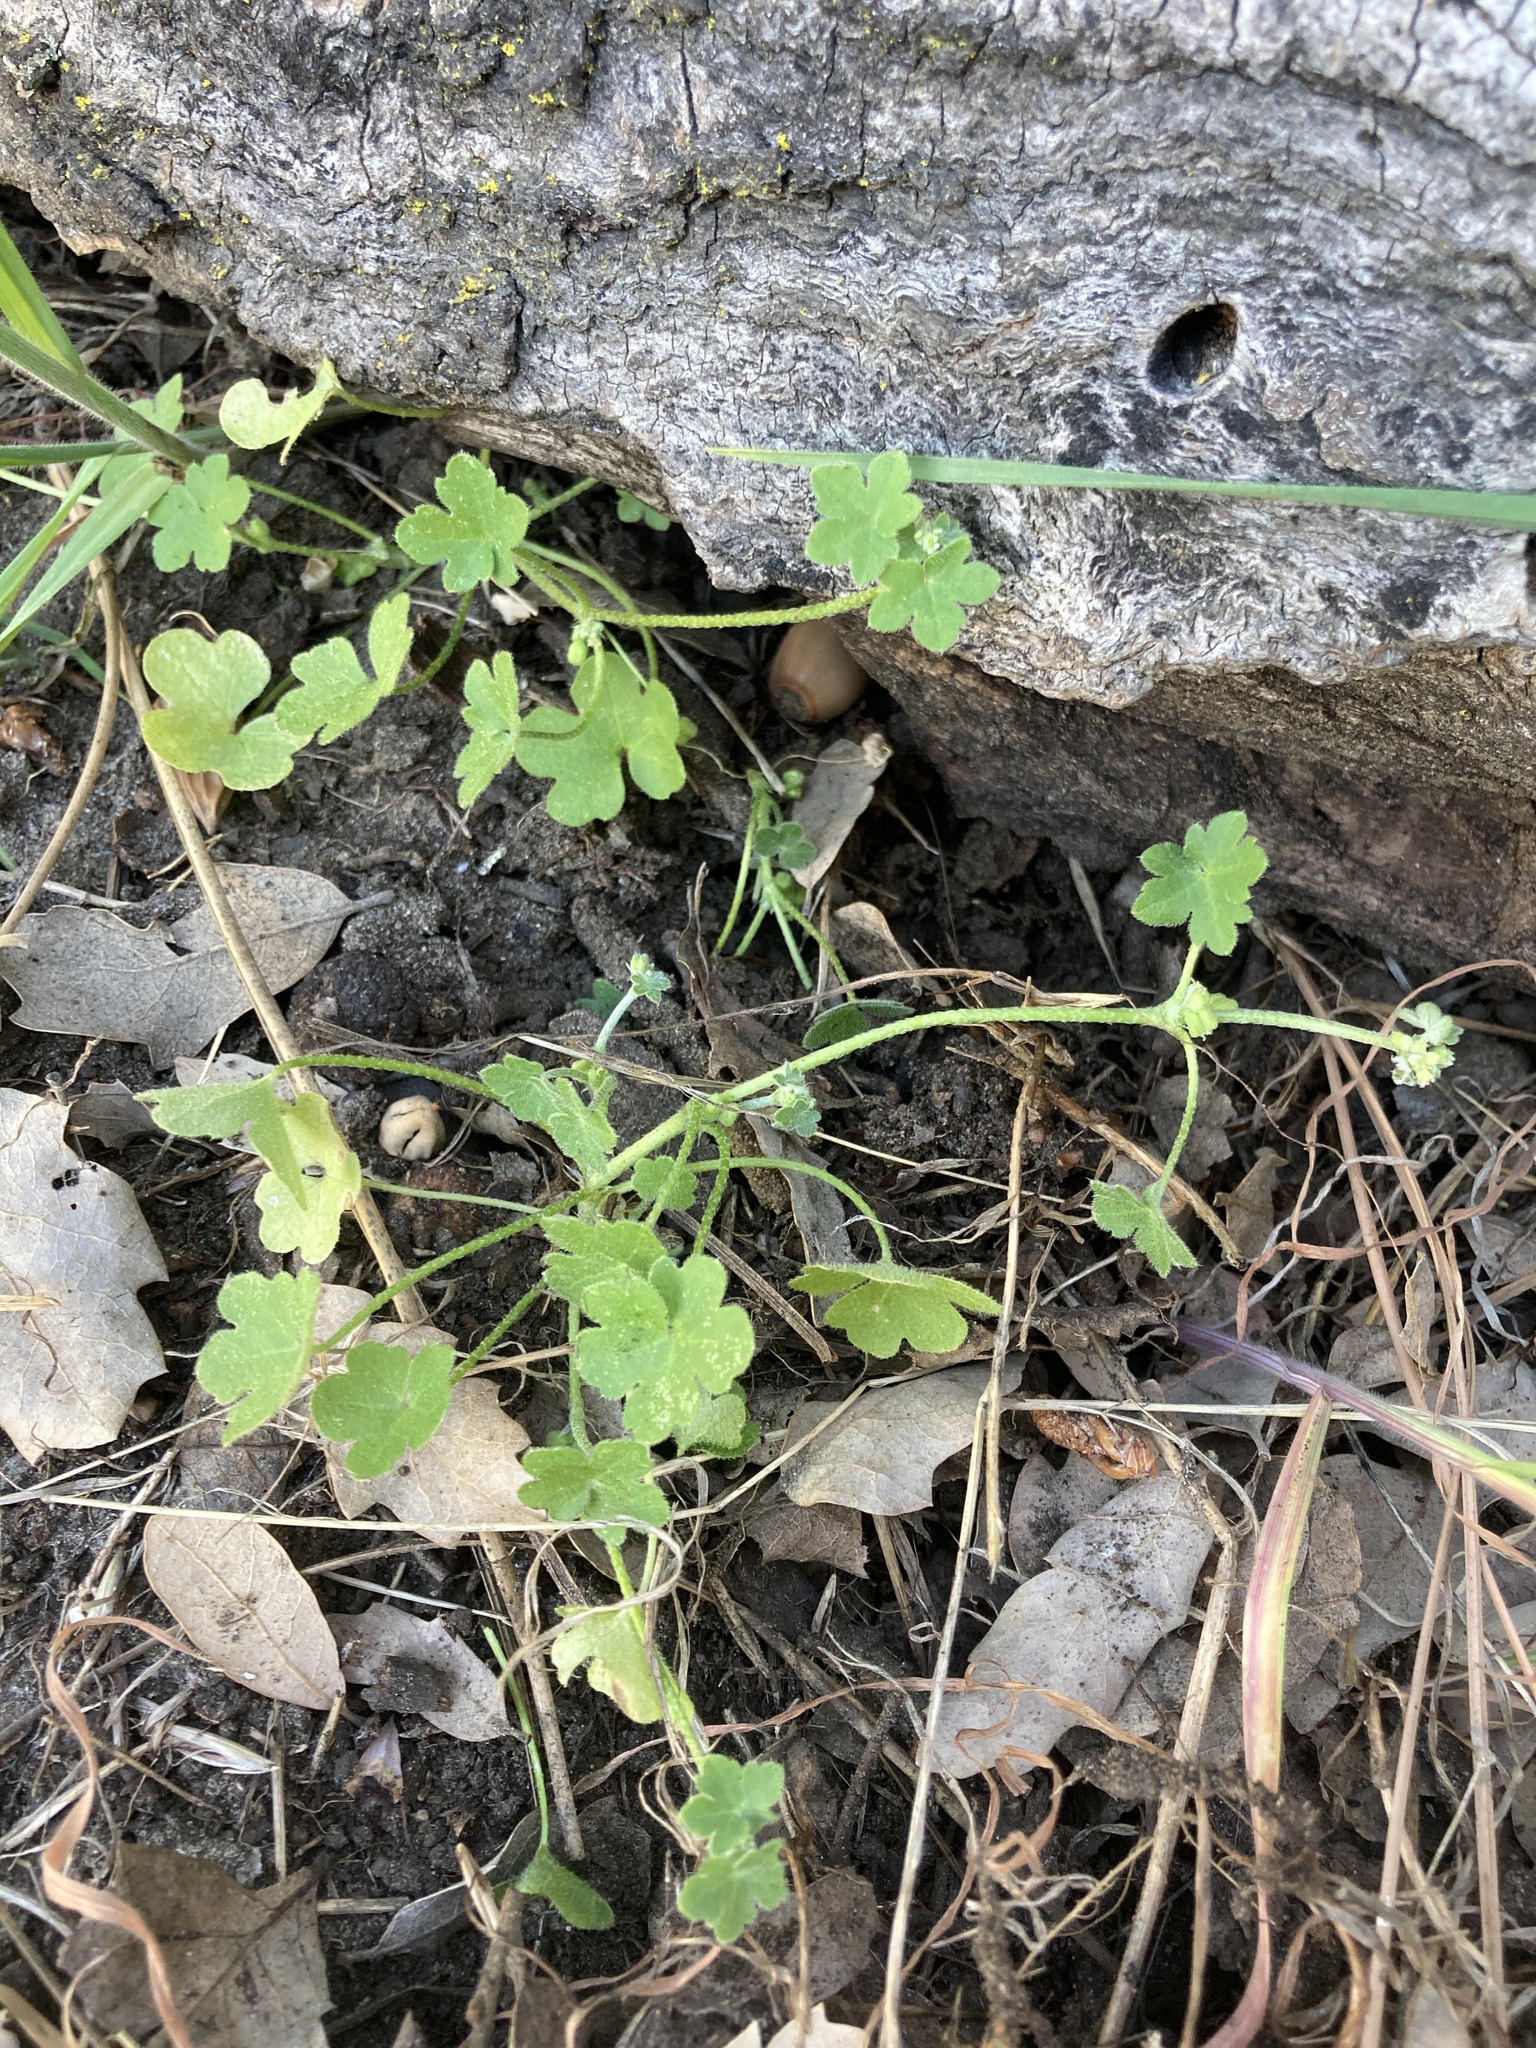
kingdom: Plantae
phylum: Tracheophyta
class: Magnoliopsida
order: Apiales
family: Apiaceae
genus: Bowlesia
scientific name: Bowlesia incana
